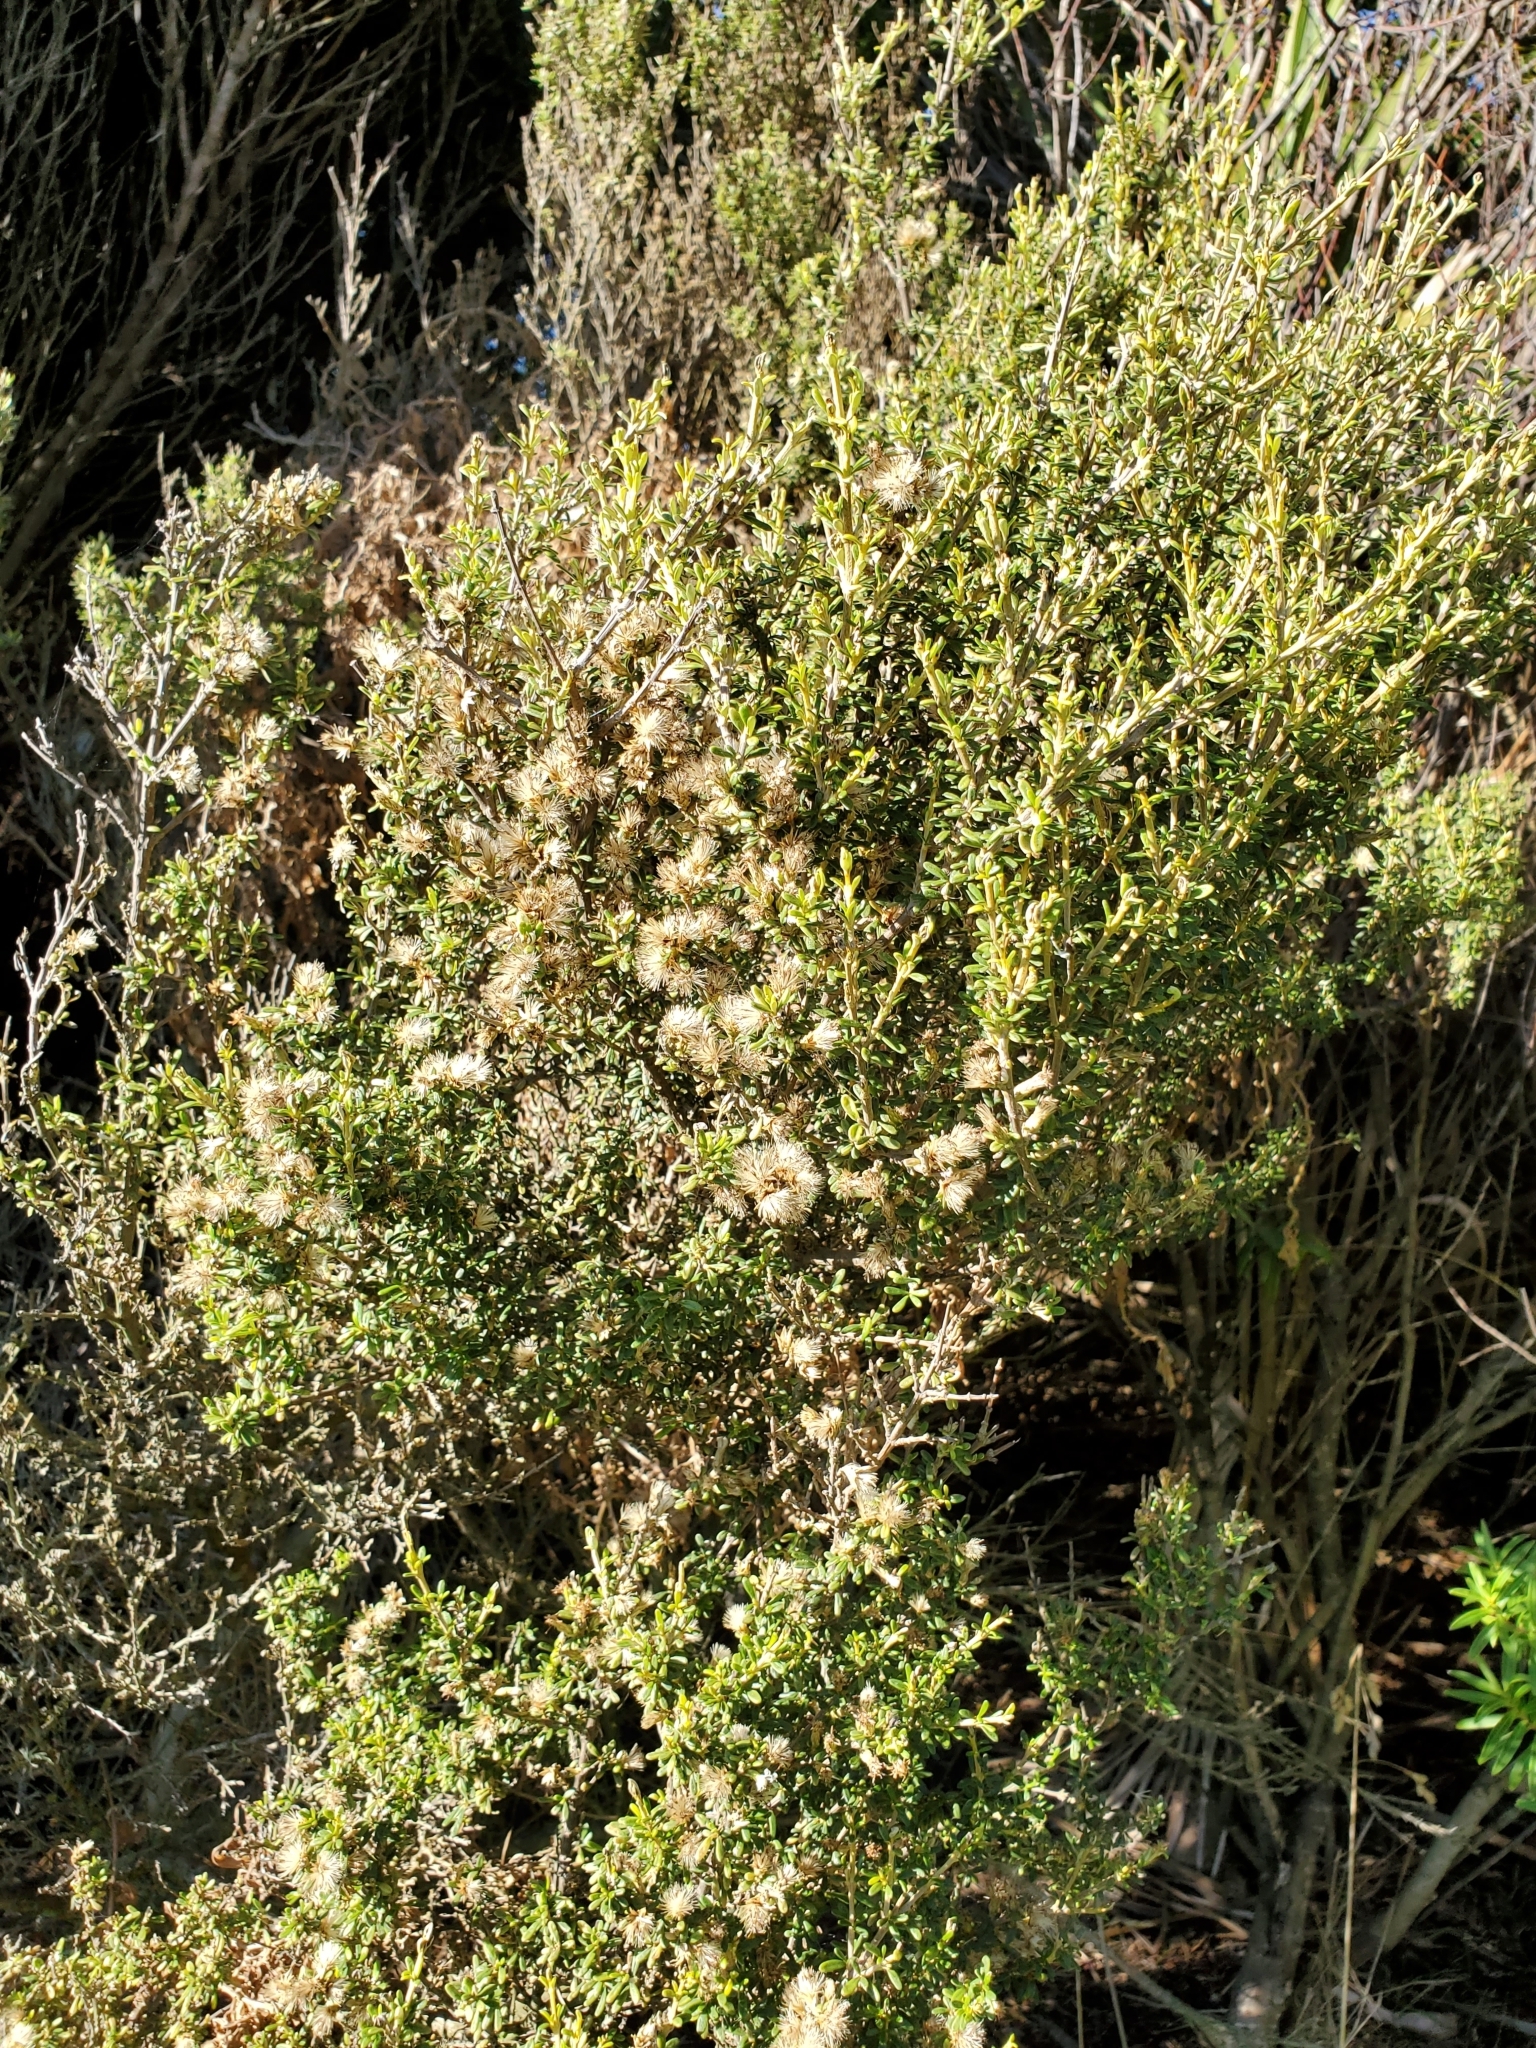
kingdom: Plantae
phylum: Tracheophyta
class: Magnoliopsida
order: Asterales
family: Asteraceae
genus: Olearia
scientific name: Olearia solandri
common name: Coastal daisybush
